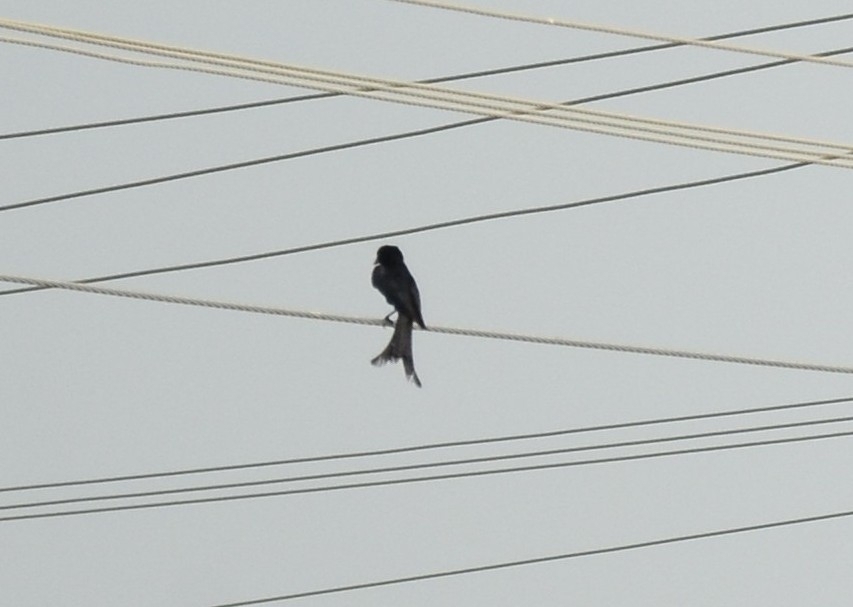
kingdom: Animalia
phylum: Chordata
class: Aves
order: Passeriformes
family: Dicruridae
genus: Dicrurus
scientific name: Dicrurus macrocercus
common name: Black drongo
